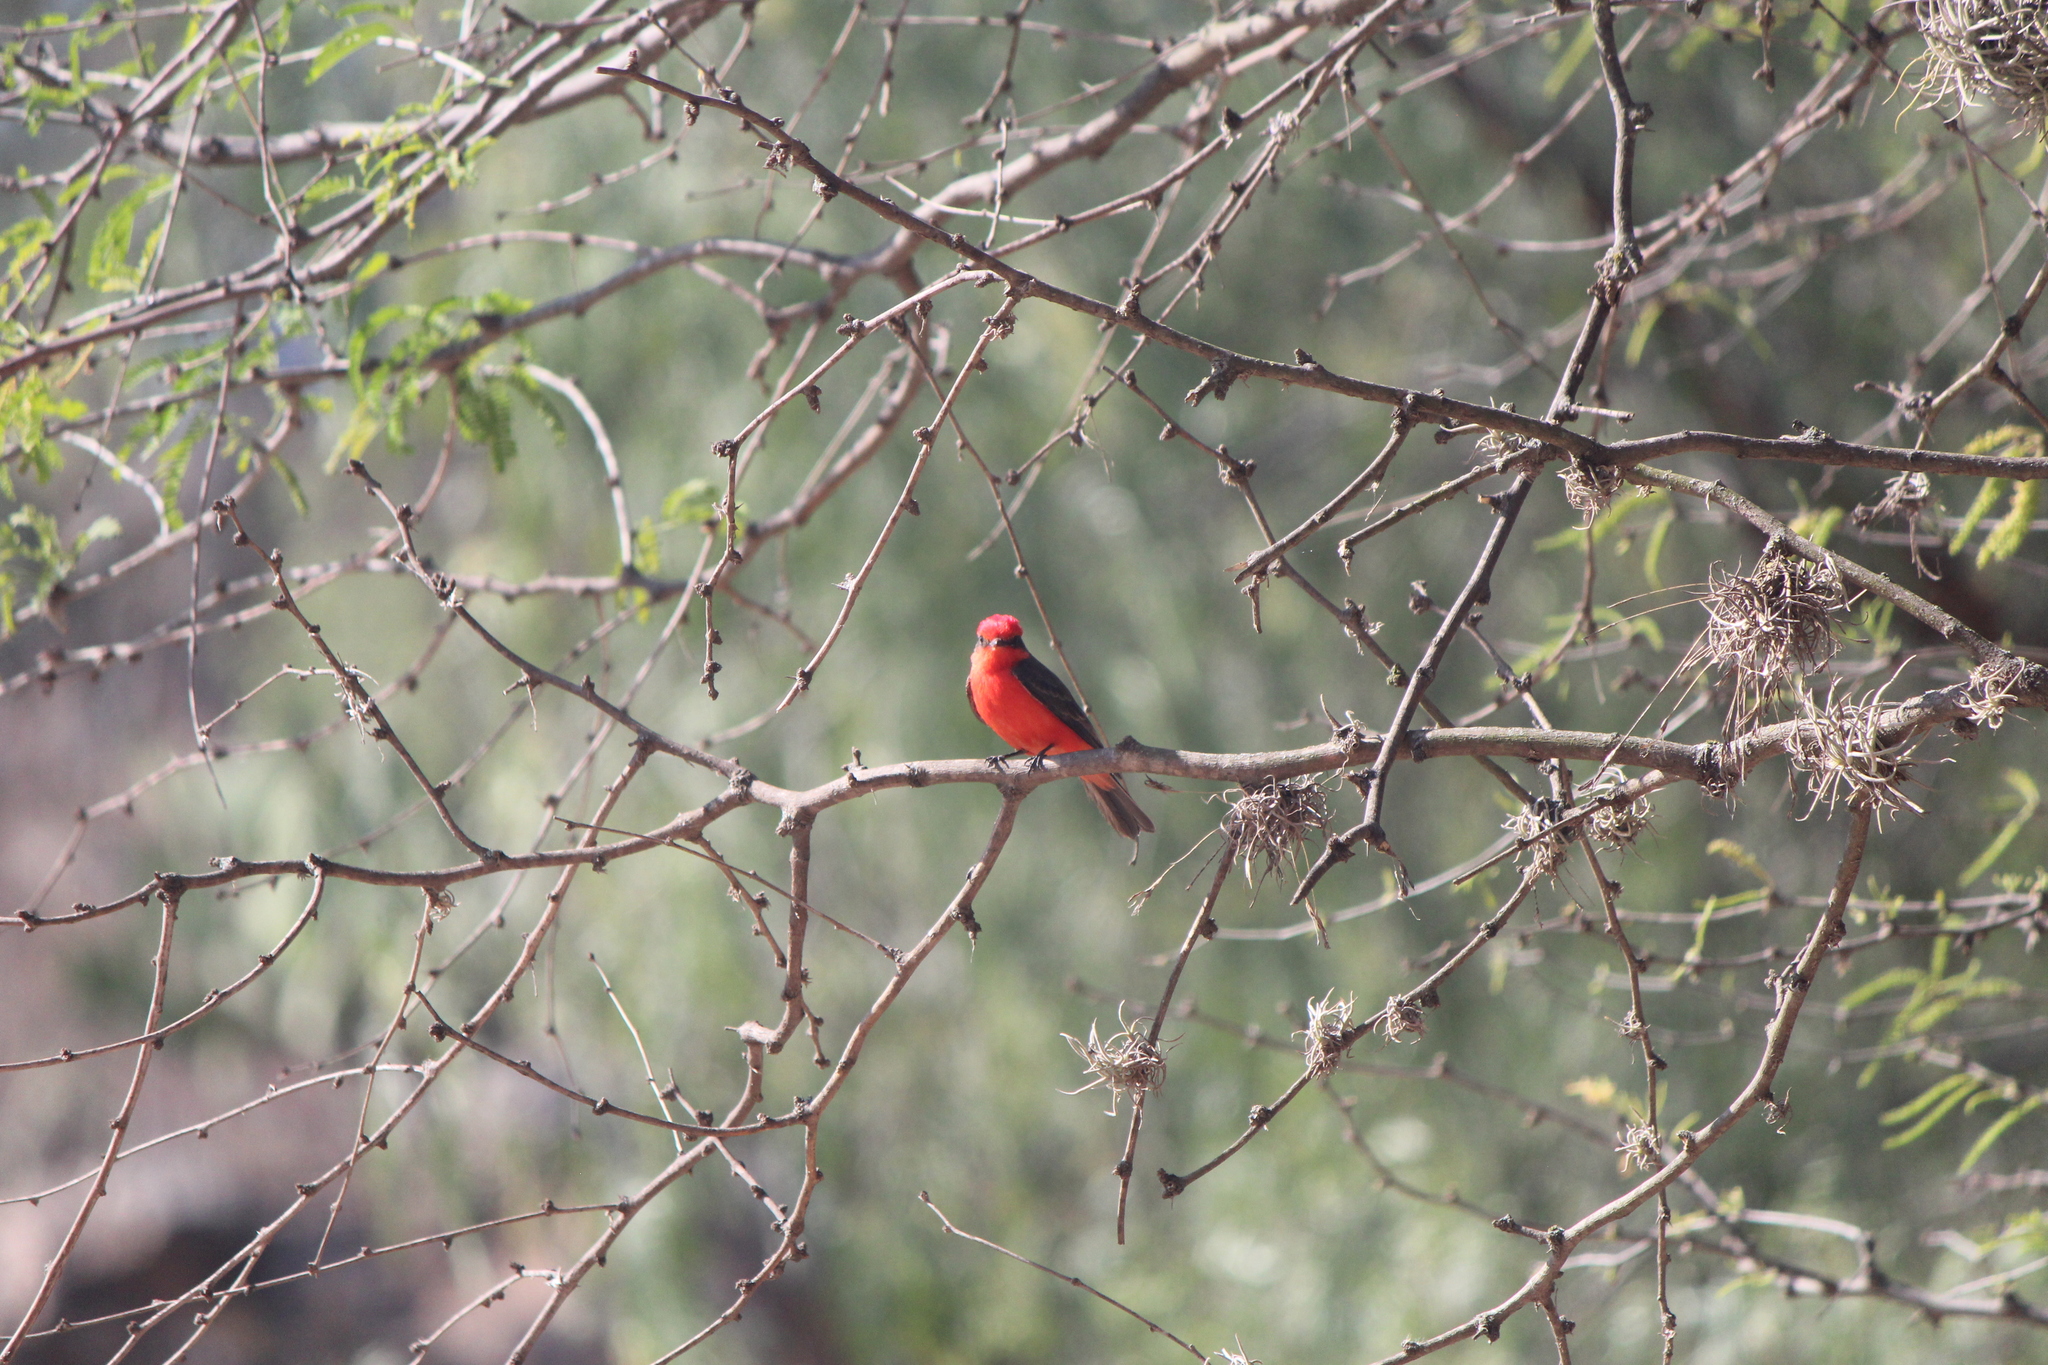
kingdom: Animalia
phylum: Chordata
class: Aves
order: Passeriformes
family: Tyrannidae
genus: Pyrocephalus
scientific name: Pyrocephalus rubinus
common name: Vermilion flycatcher
